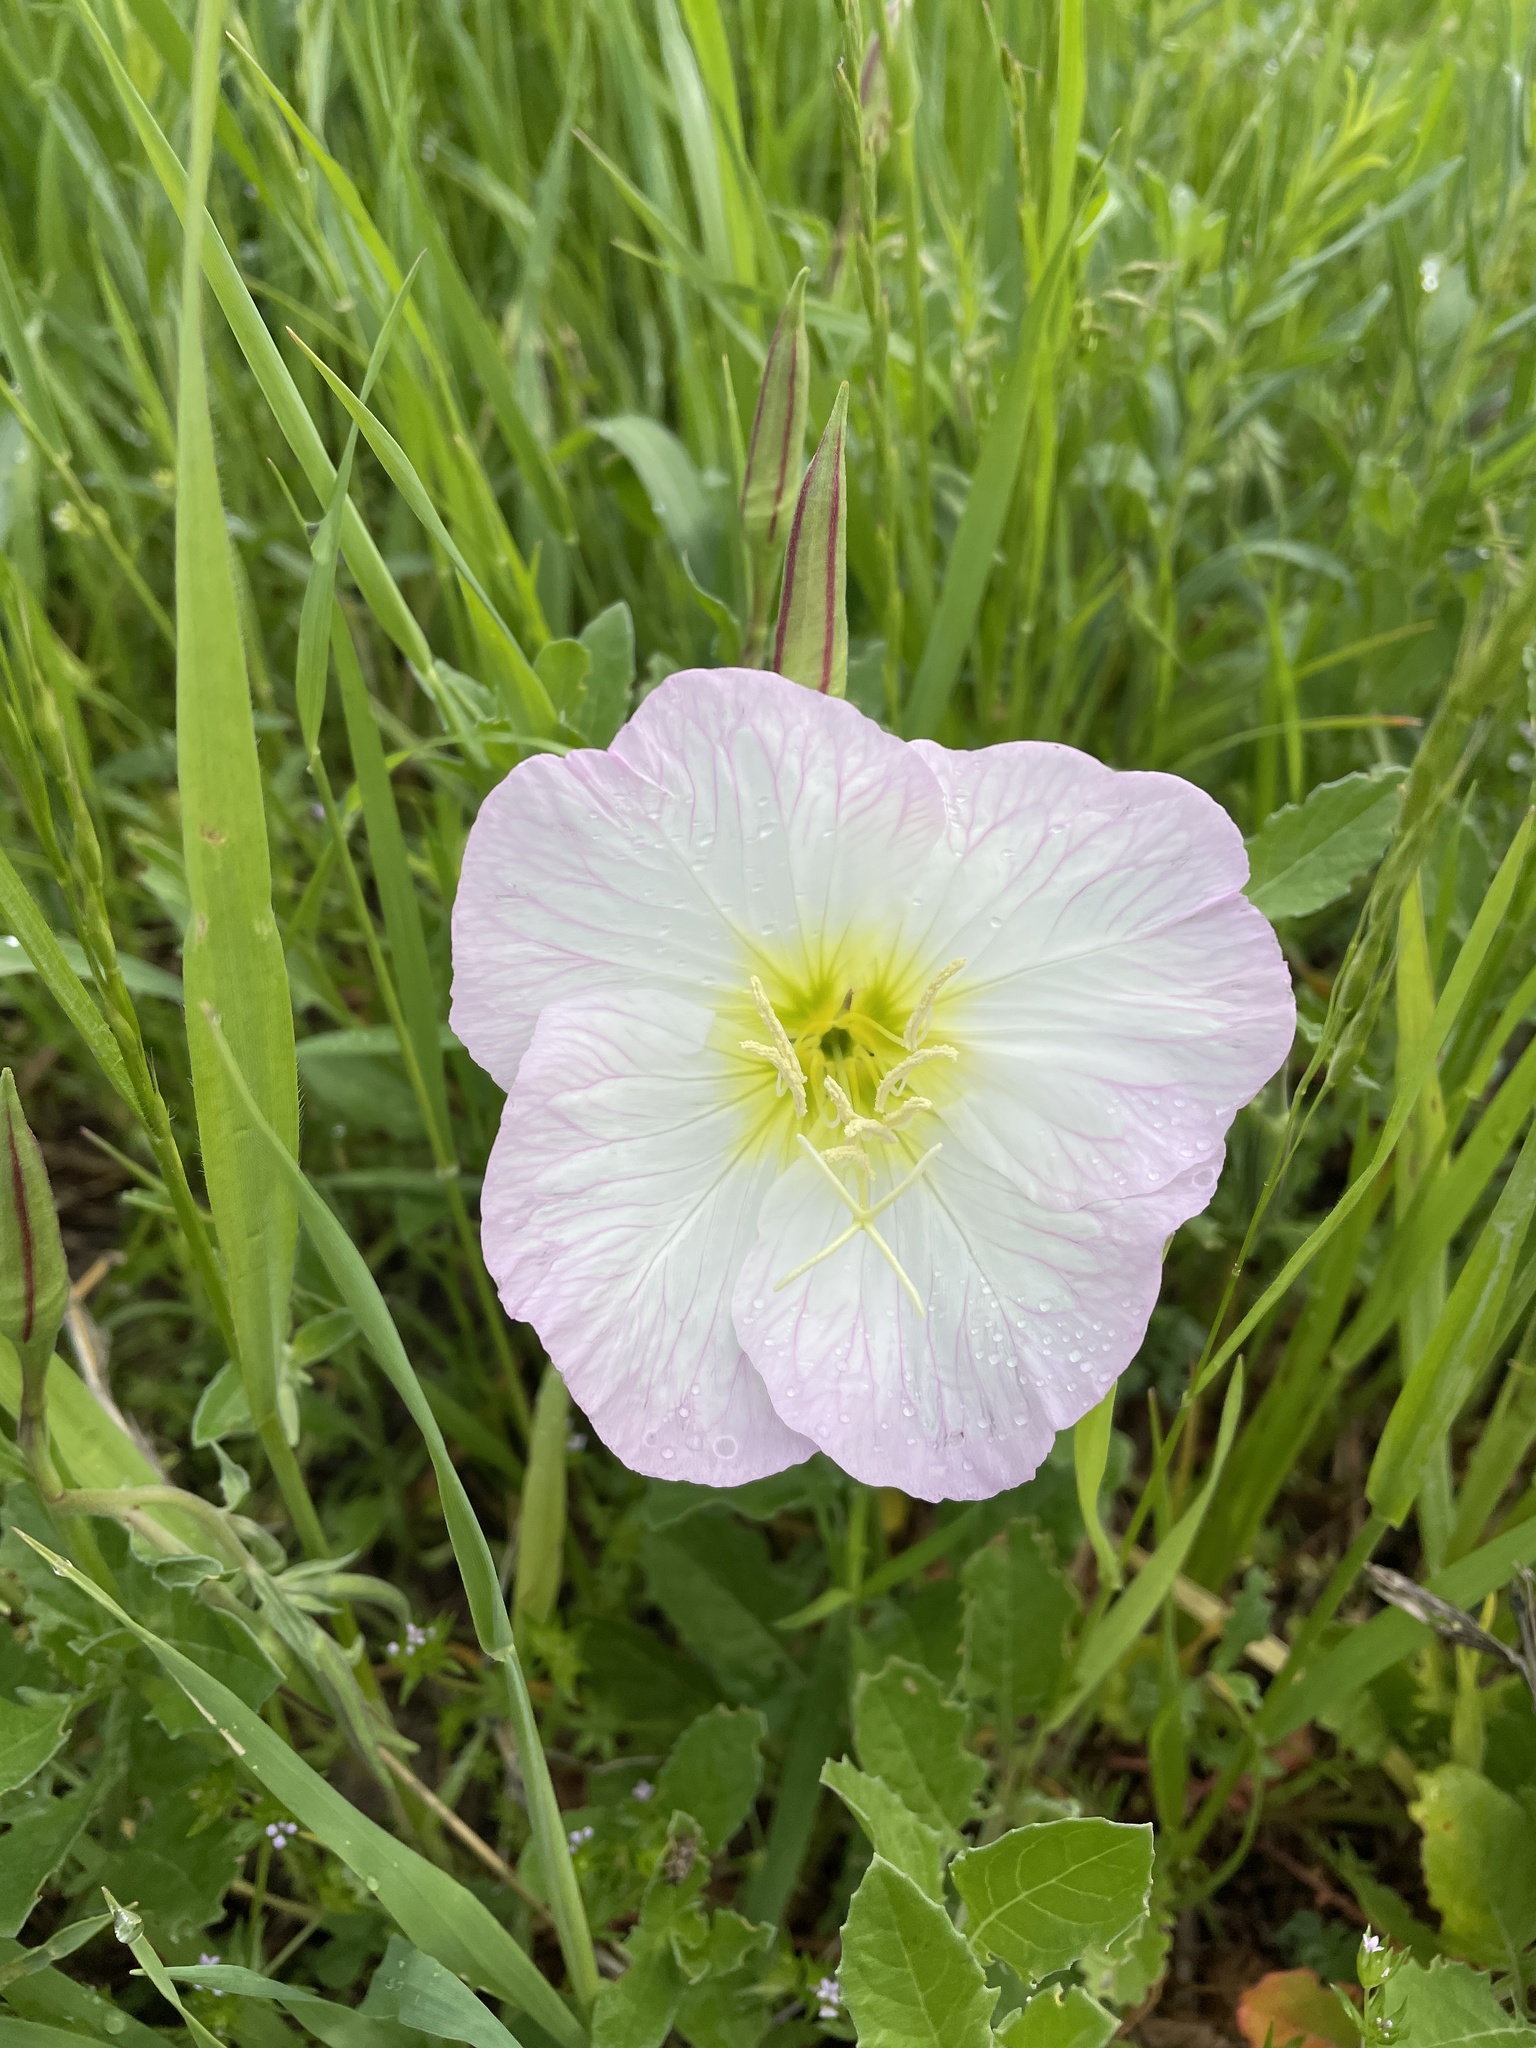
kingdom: Plantae
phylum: Tracheophyta
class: Magnoliopsida
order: Myrtales
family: Onagraceae
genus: Oenothera
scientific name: Oenothera speciosa
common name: White evening-primrose
